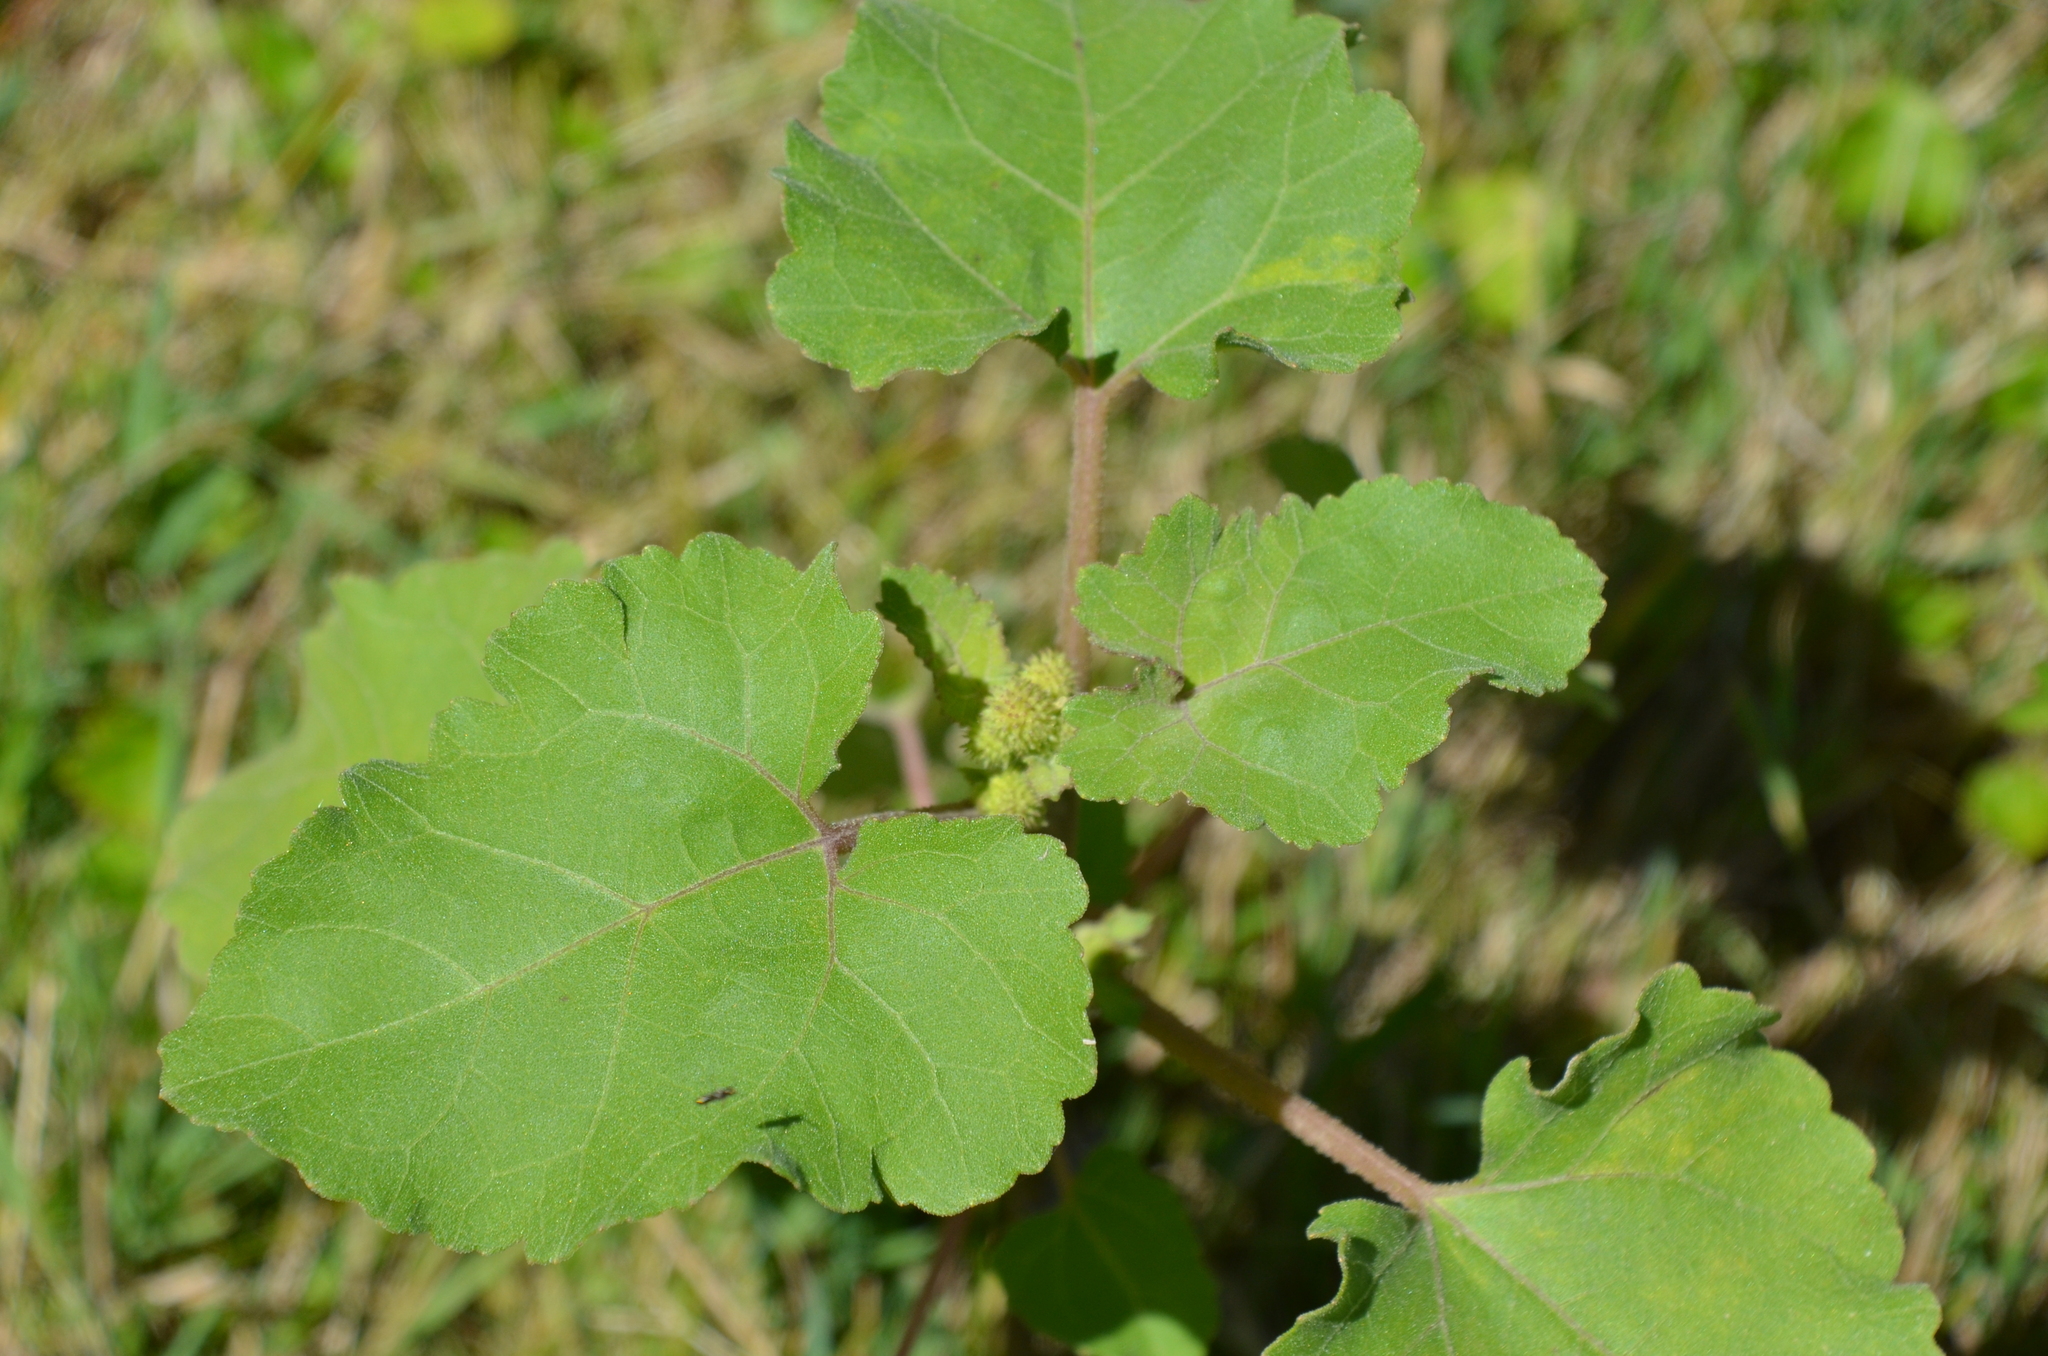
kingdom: Plantae
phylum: Tracheophyta
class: Magnoliopsida
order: Asterales
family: Asteraceae
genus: Xanthium
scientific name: Xanthium strumarium
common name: Rough cocklebur
